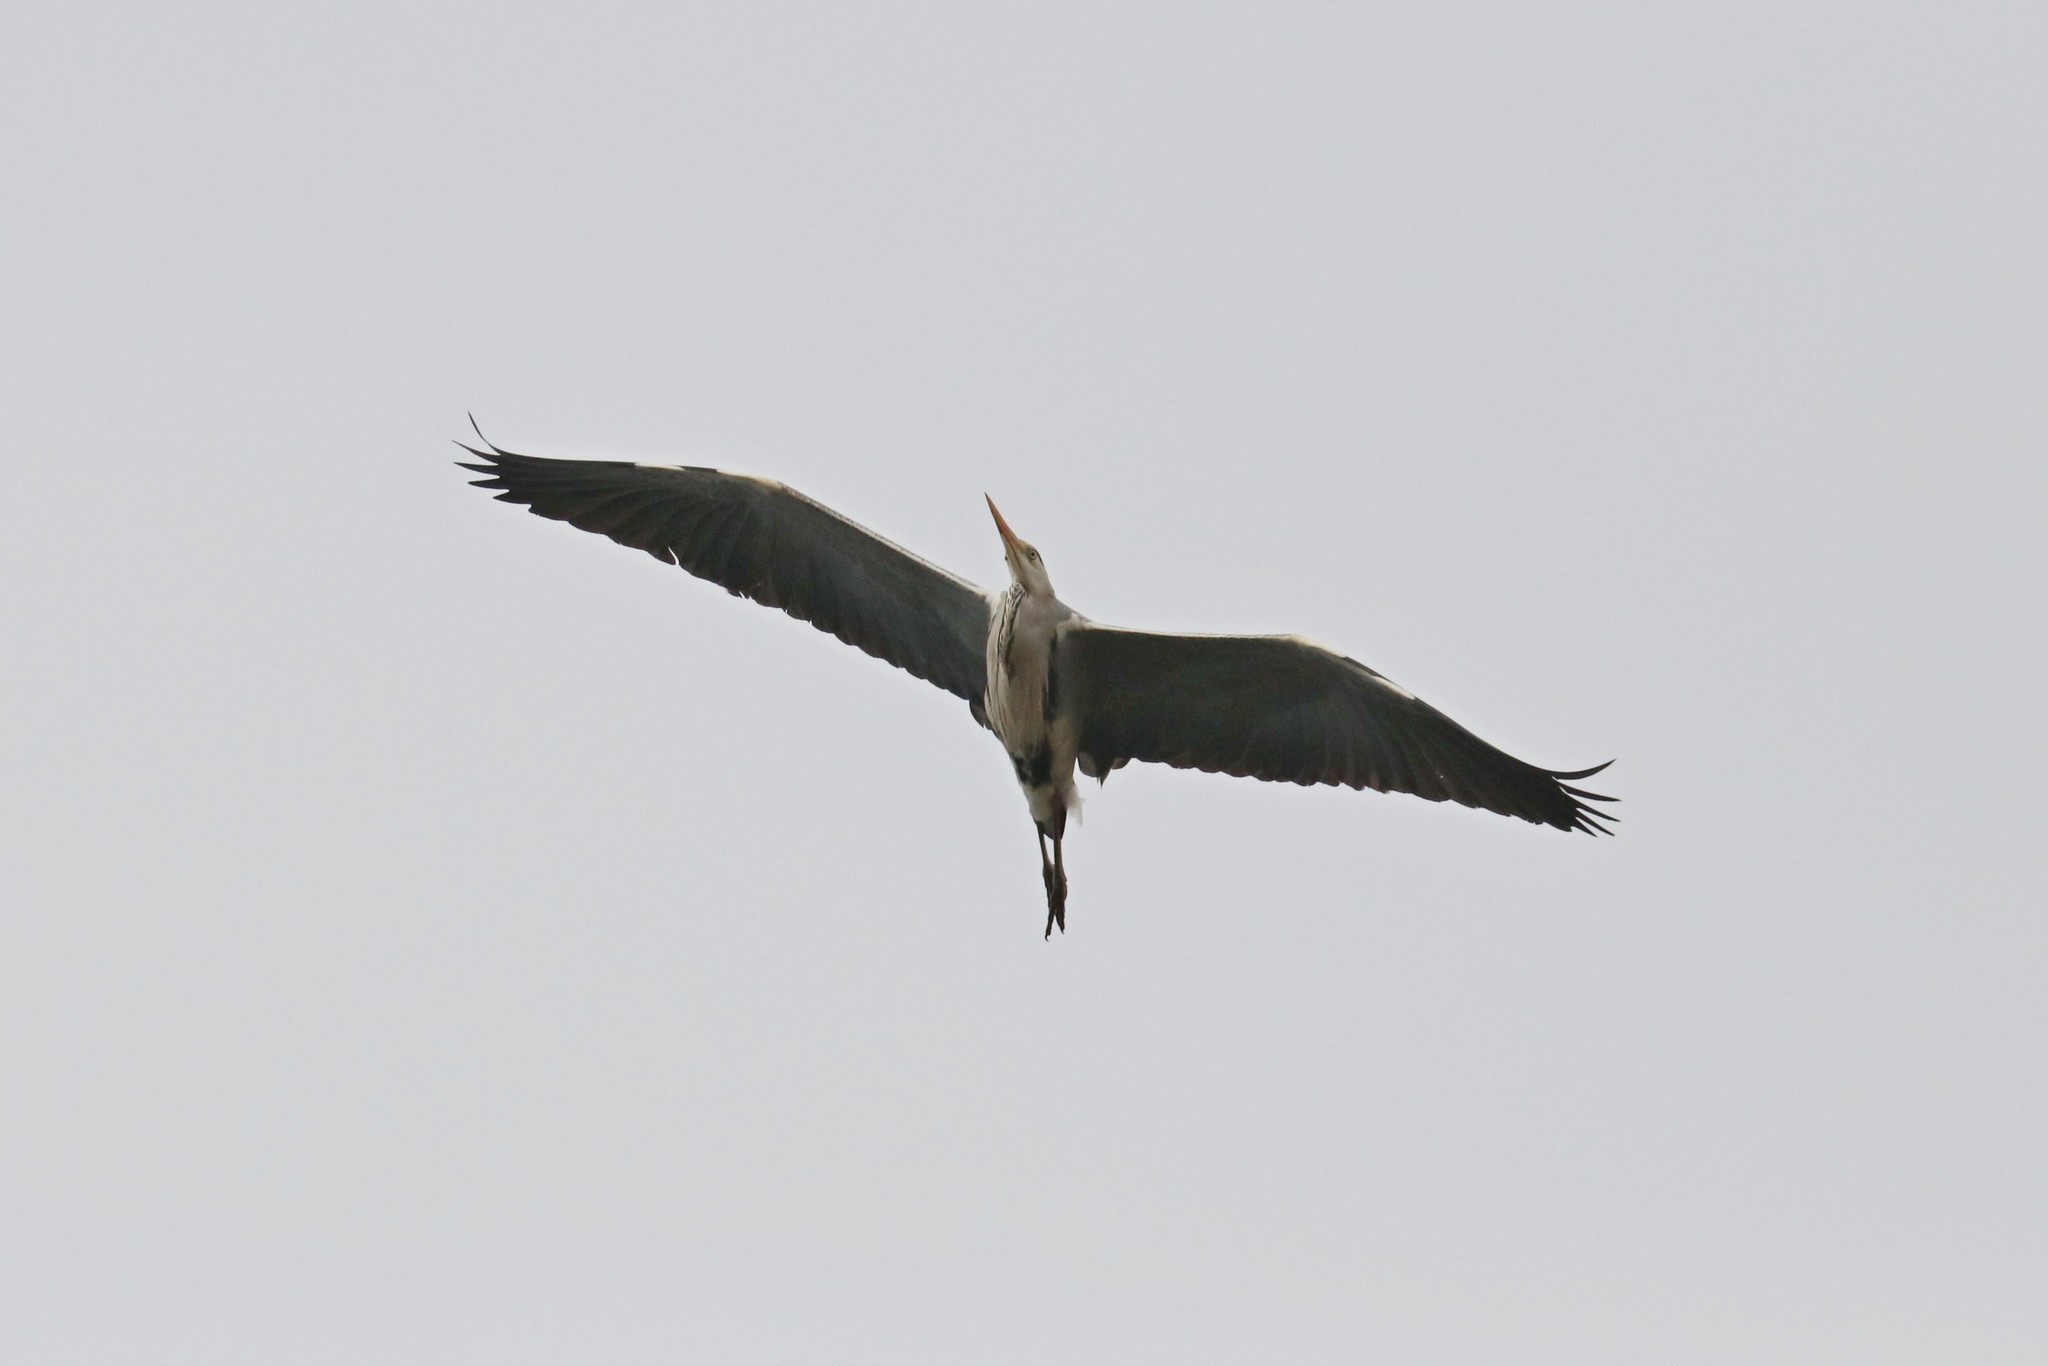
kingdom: Animalia
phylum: Chordata
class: Aves
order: Pelecaniformes
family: Ardeidae
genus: Ardea
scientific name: Ardea cinerea
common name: Grey heron
